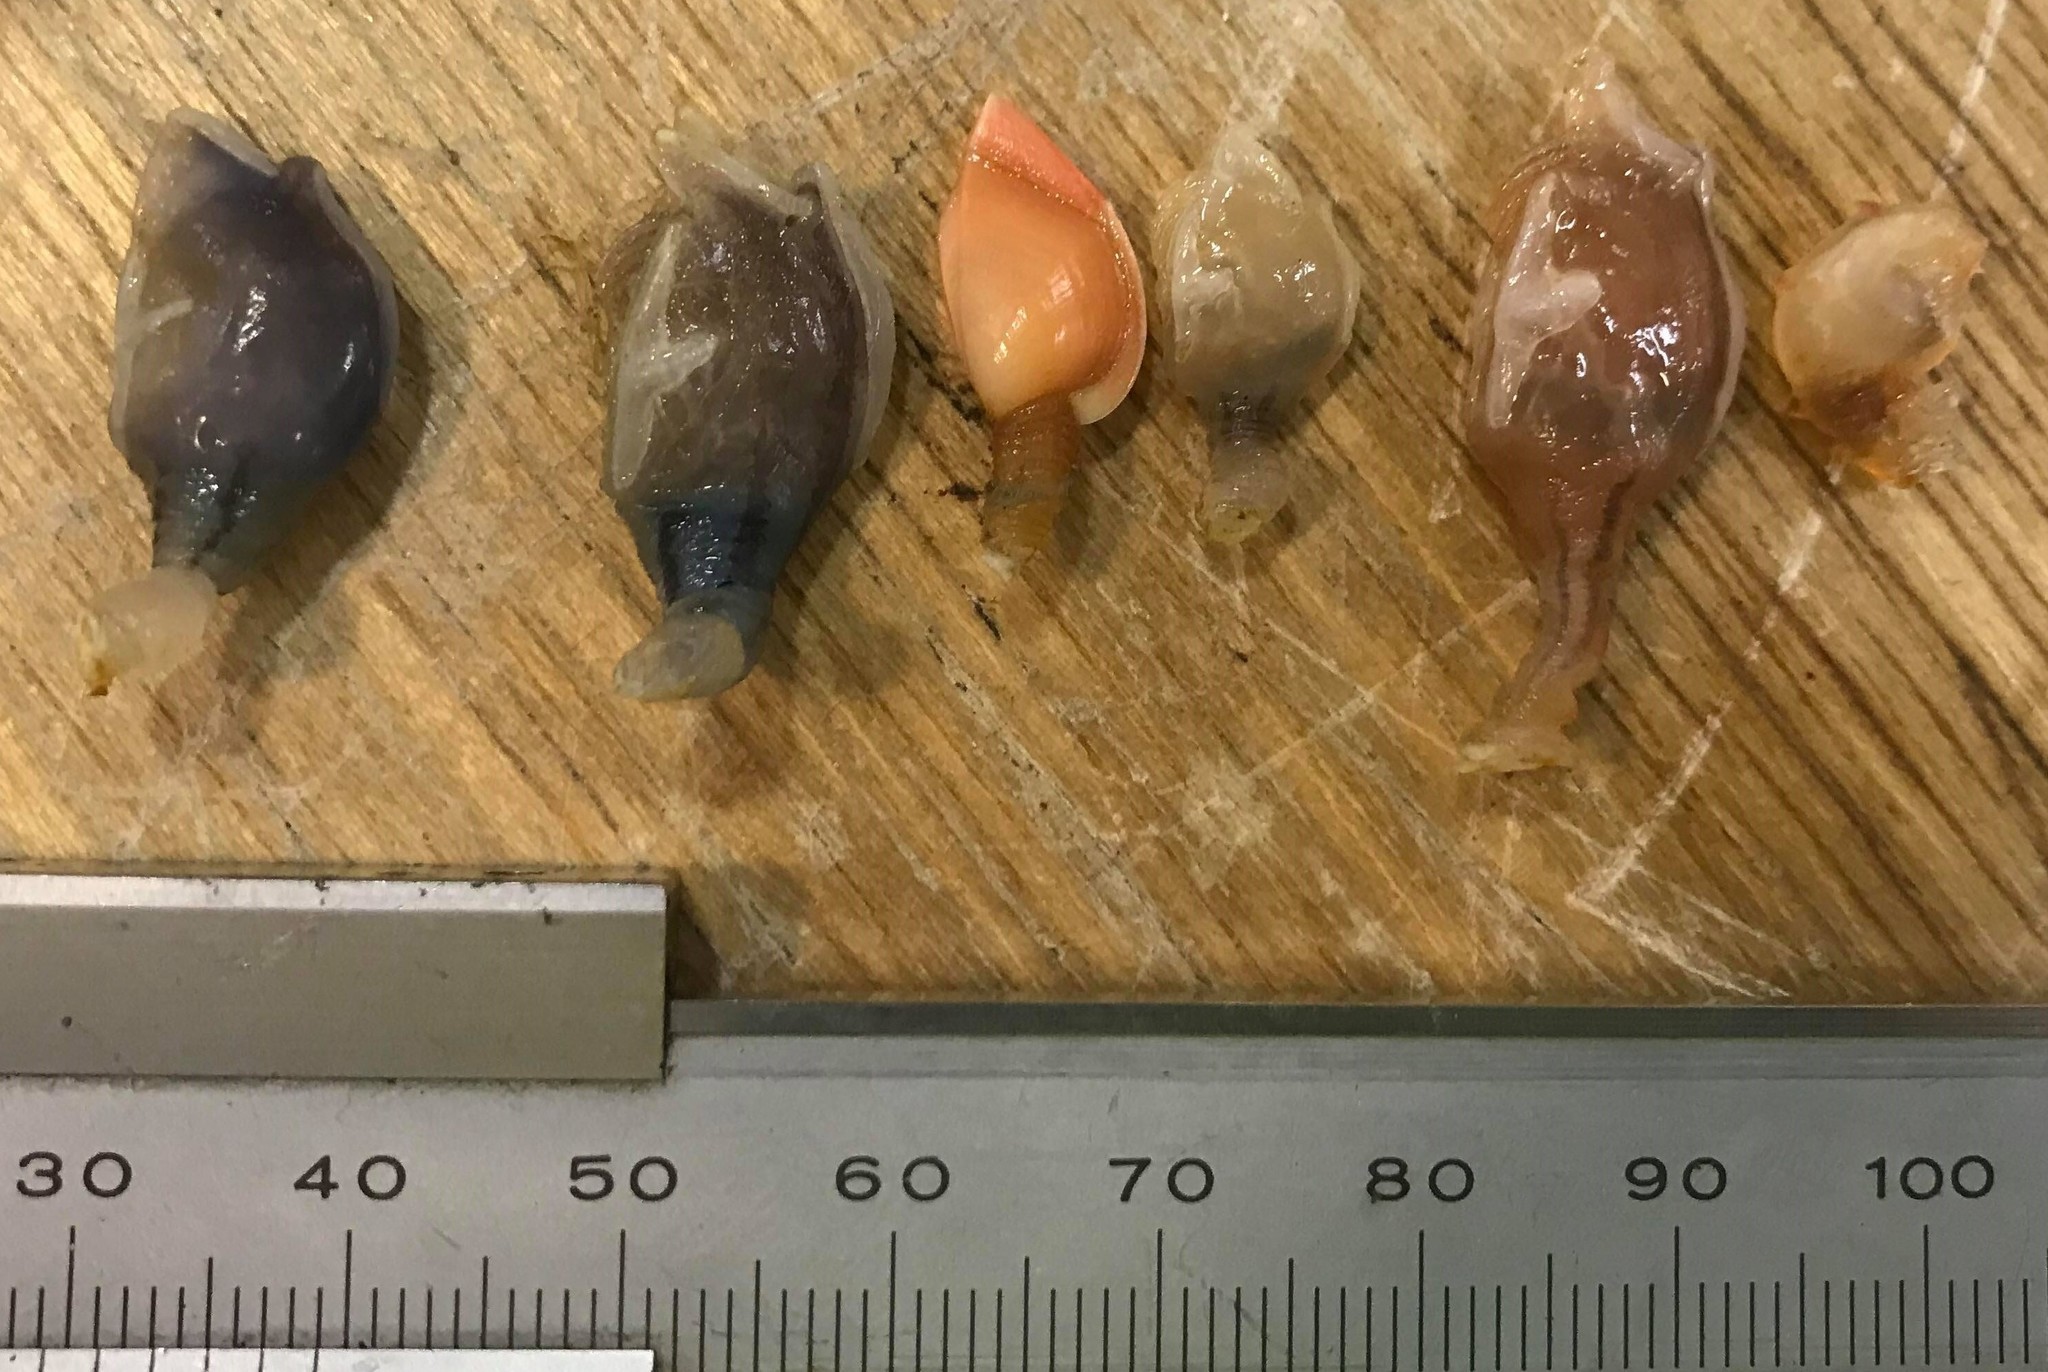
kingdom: Animalia
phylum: Arthropoda
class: Maxillopoda
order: Pedunculata
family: Lepadidae
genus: Conchoderma
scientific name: Conchoderma virgatum
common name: Striped gooseneck barnacle
